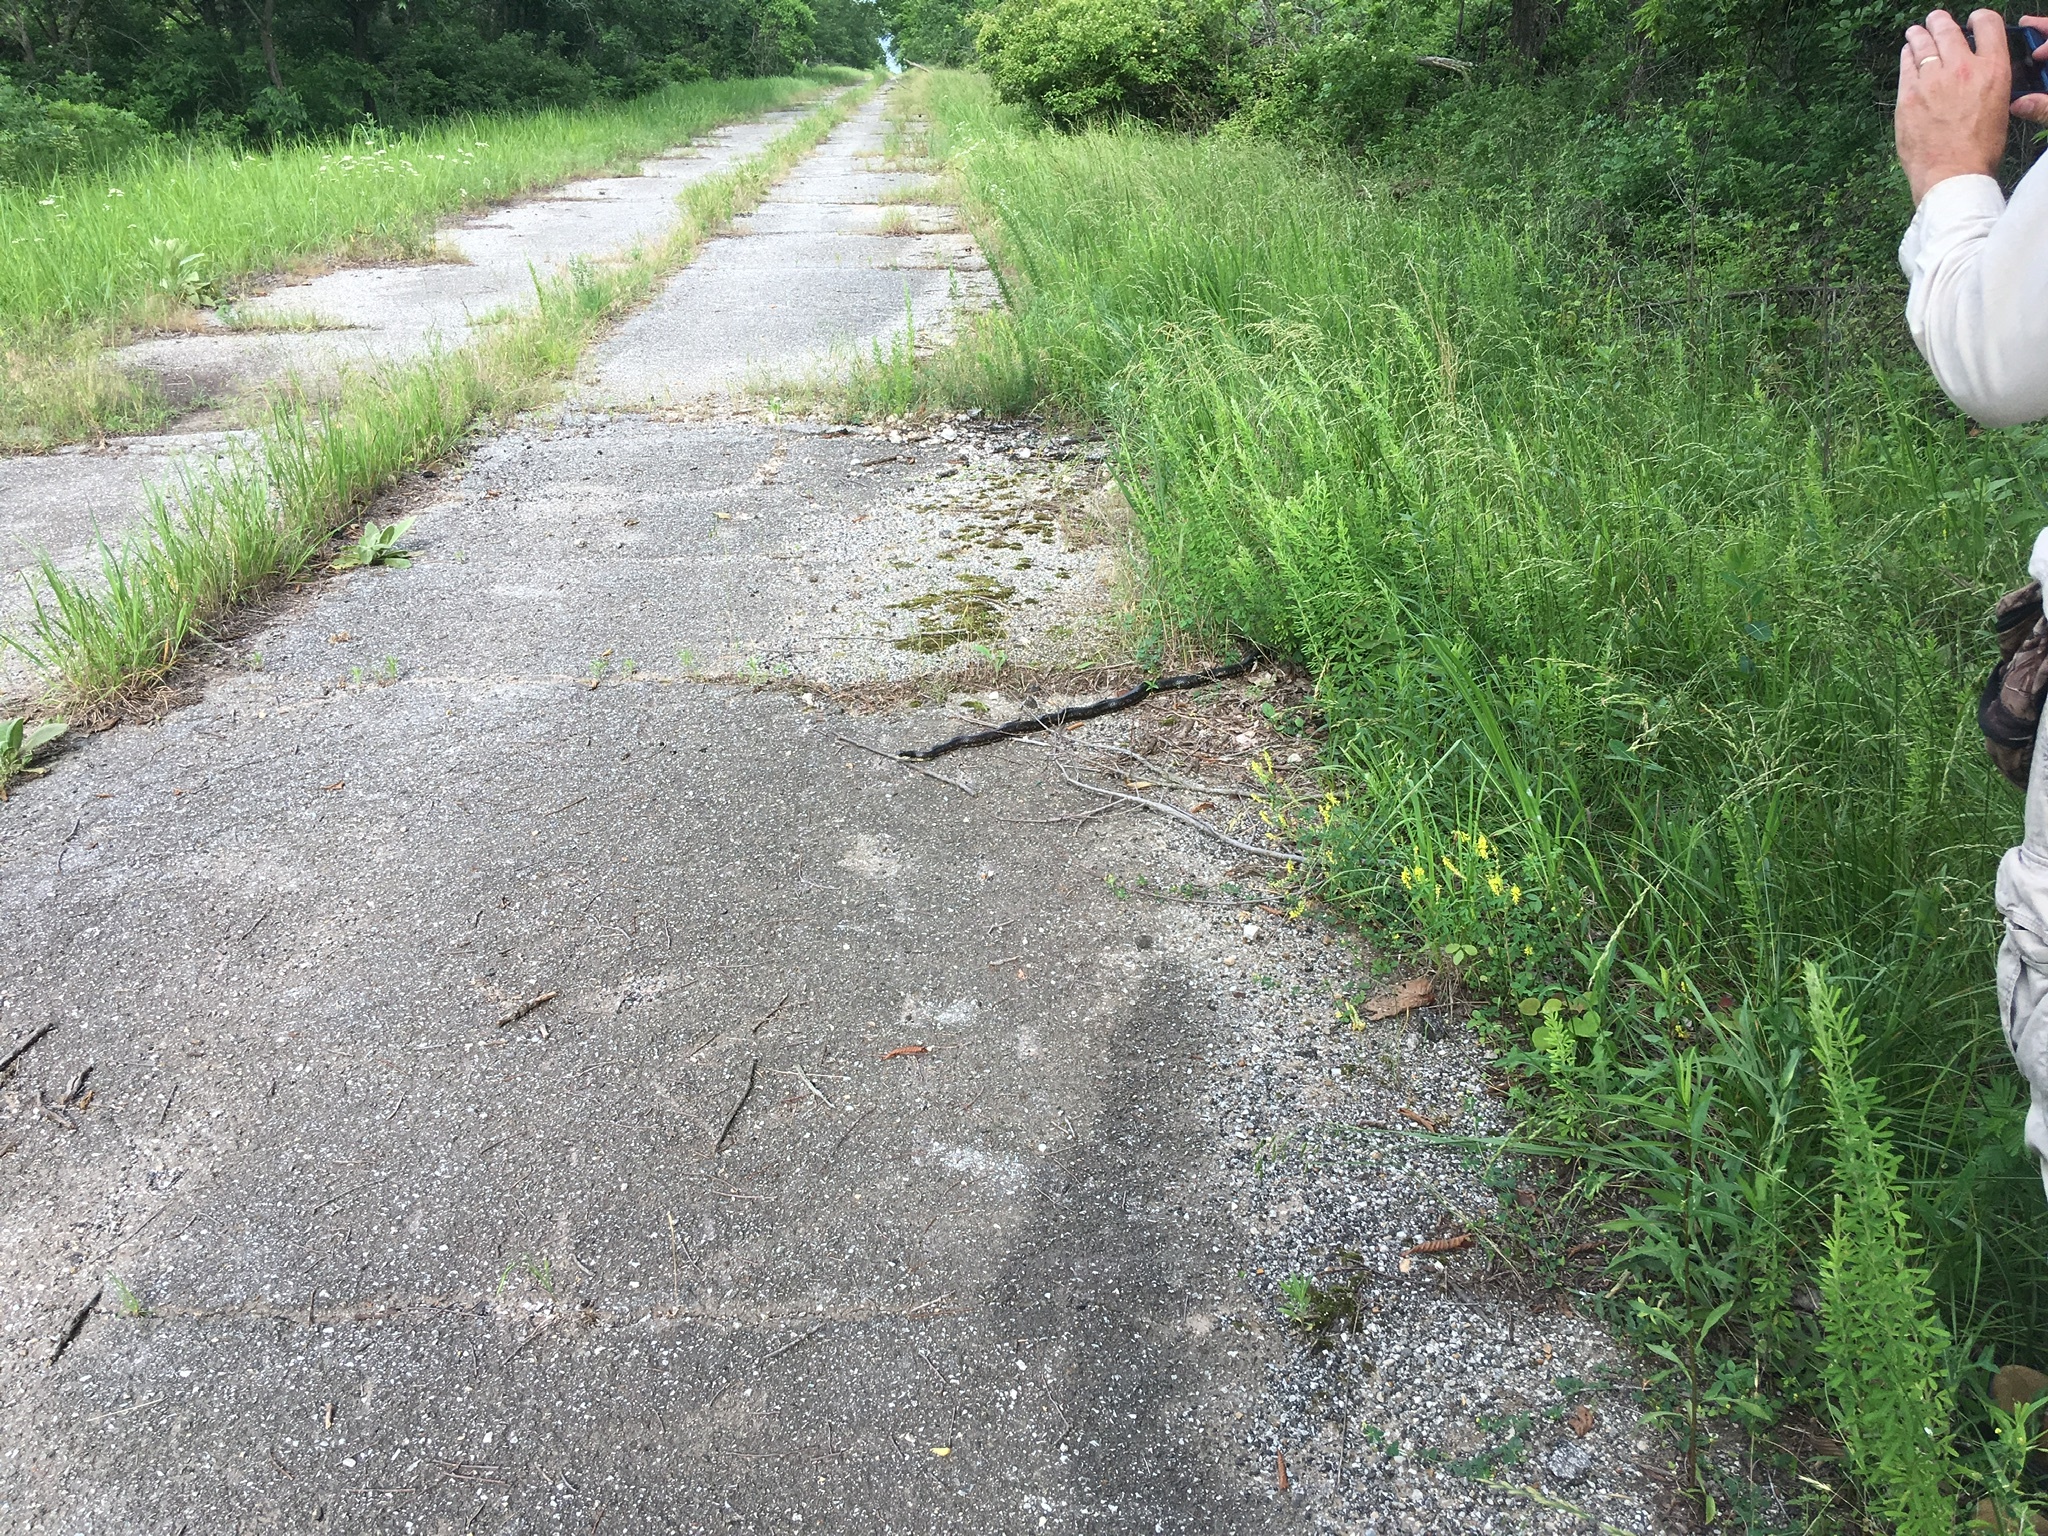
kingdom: Animalia
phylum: Chordata
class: Squamata
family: Colubridae
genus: Pantherophis
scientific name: Pantherophis obsoletus
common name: Black rat snake
